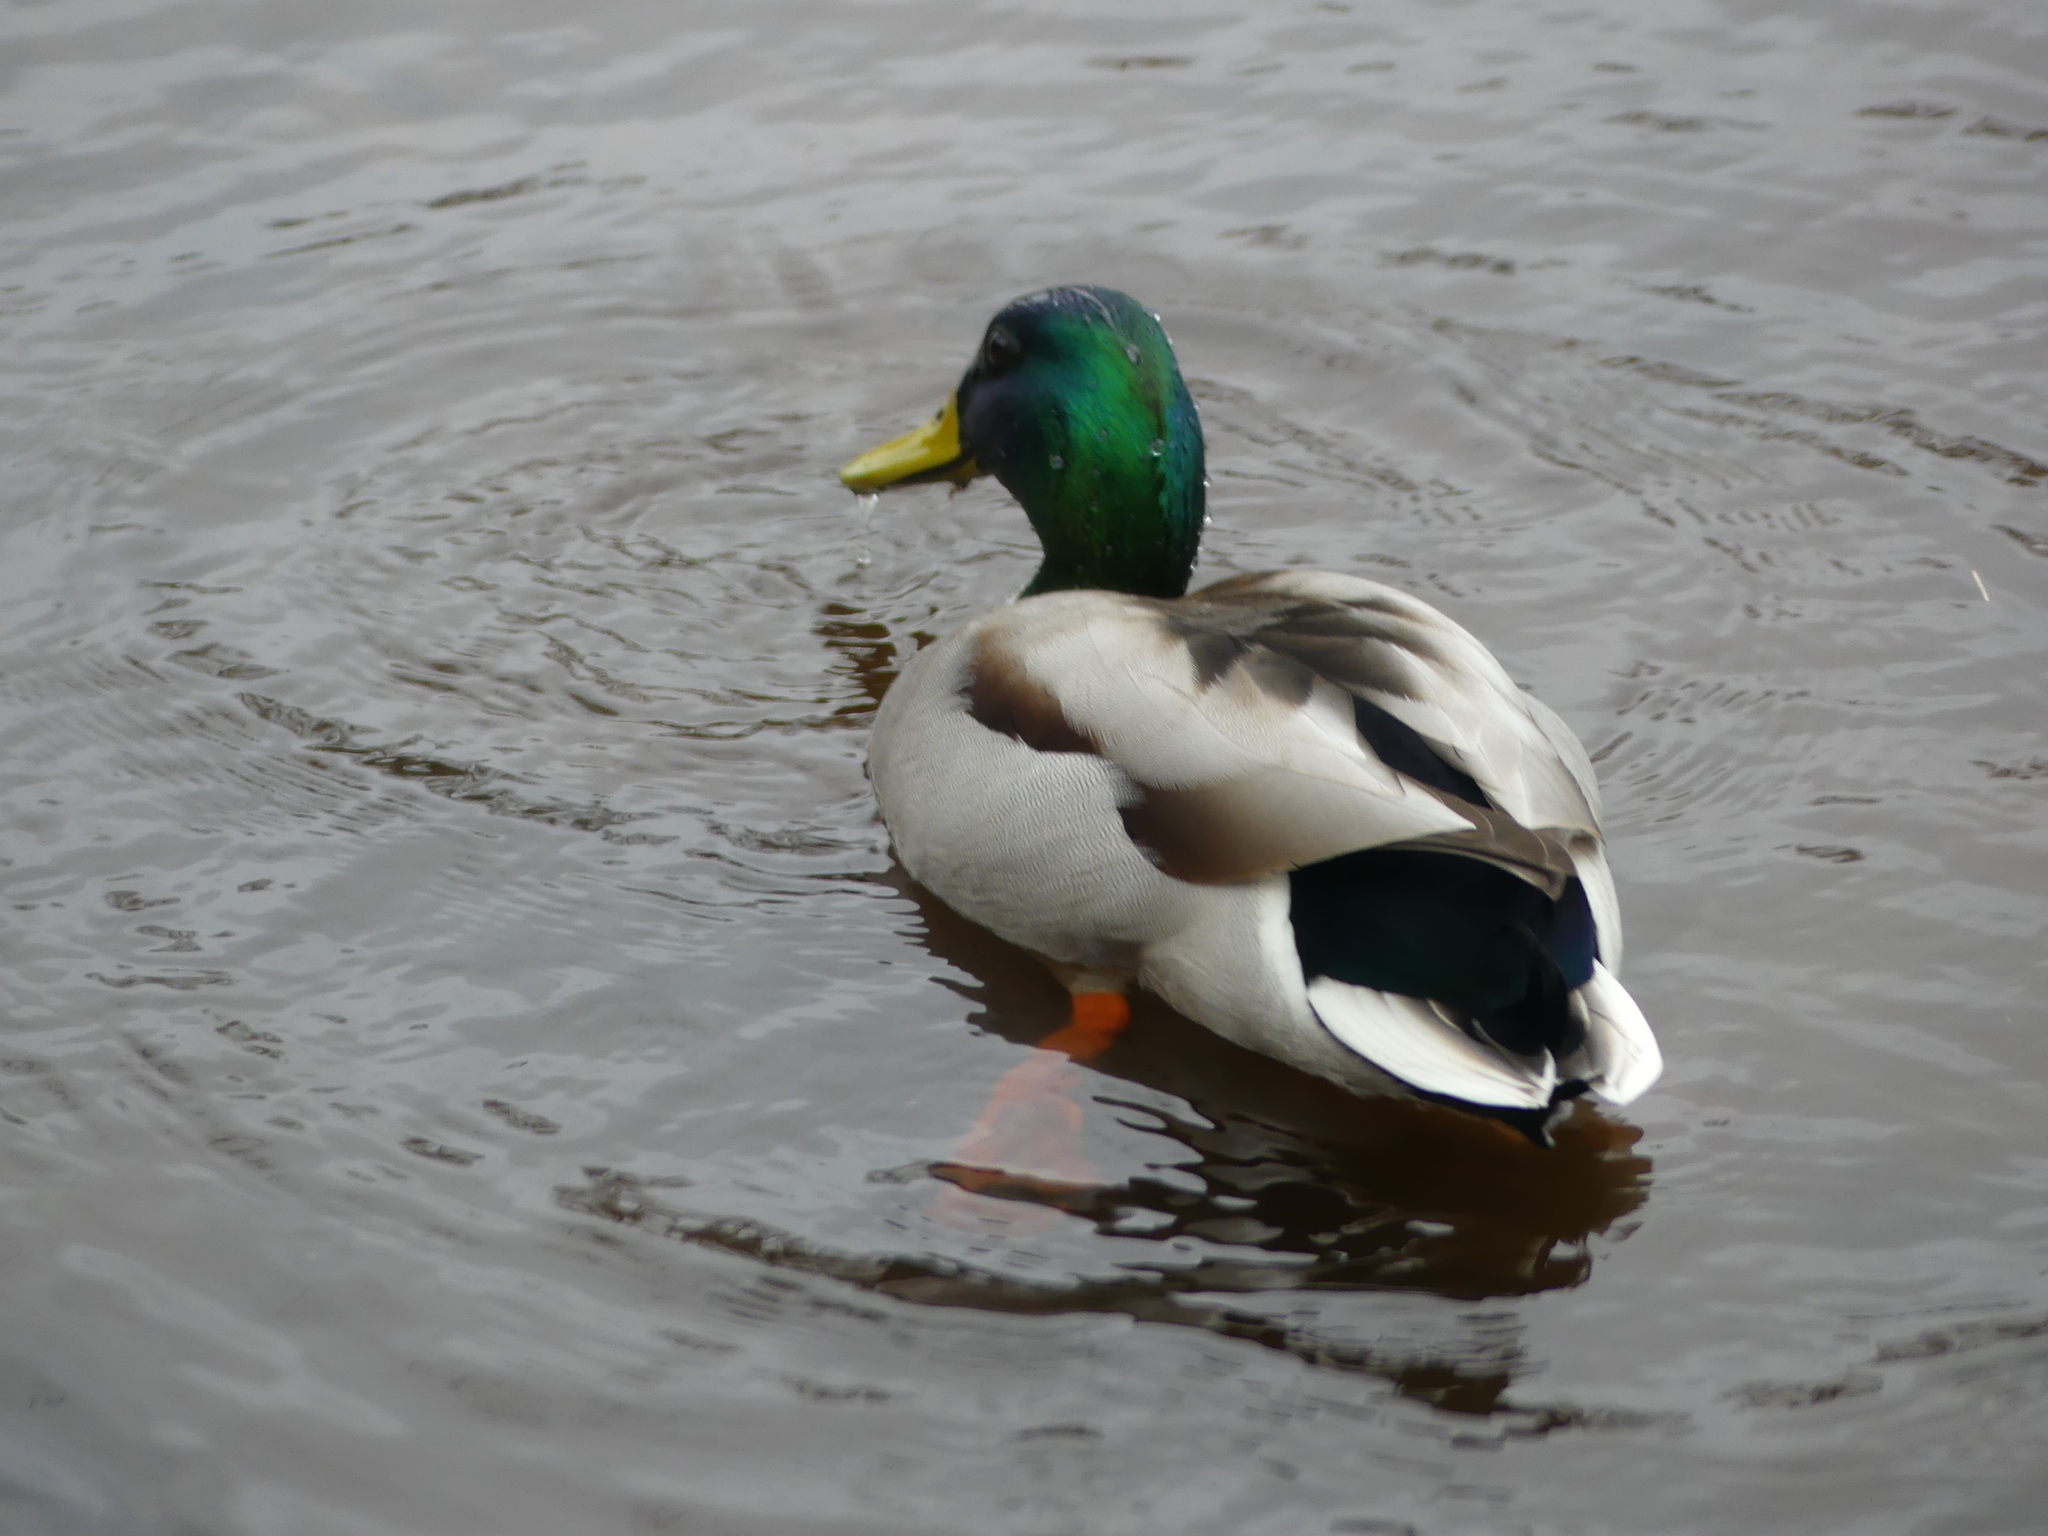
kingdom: Animalia
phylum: Chordata
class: Aves
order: Anseriformes
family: Anatidae
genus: Anas
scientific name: Anas platyrhynchos
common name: Mallard
